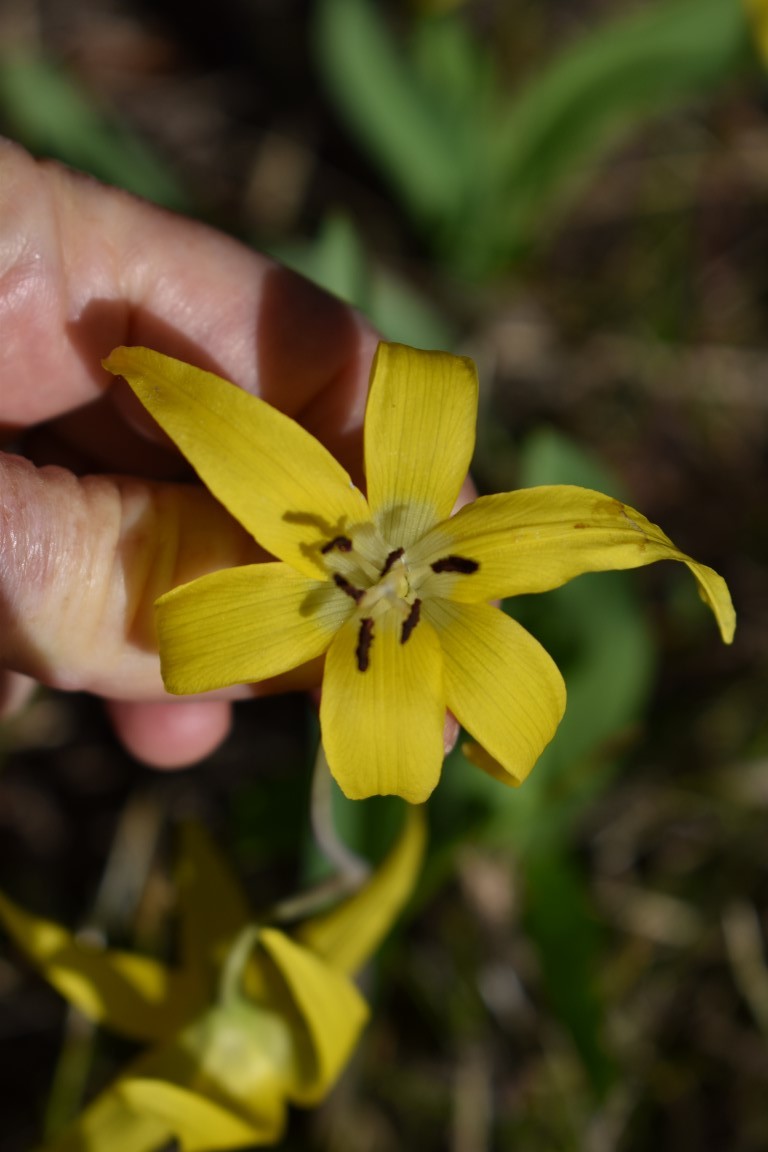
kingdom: Plantae
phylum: Tracheophyta
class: Liliopsida
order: Liliales
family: Liliaceae
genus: Erythronium
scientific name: Erythronium grandiflorum
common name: Avalanche-lily
